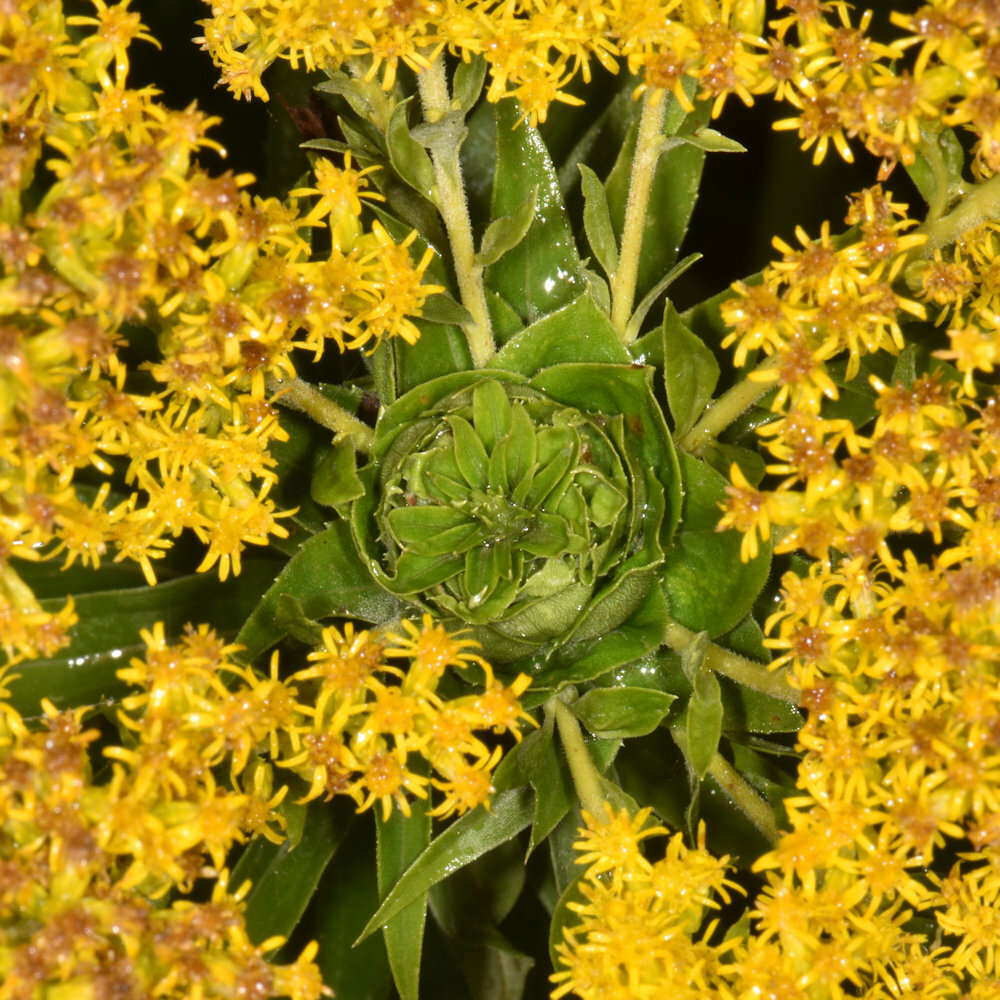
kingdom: Animalia
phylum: Arthropoda
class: Insecta
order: Diptera
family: Cecidomyiidae
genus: Rhopalomyia
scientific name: Rhopalomyia solidaginis
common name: Goldenrod bunch gall midge
